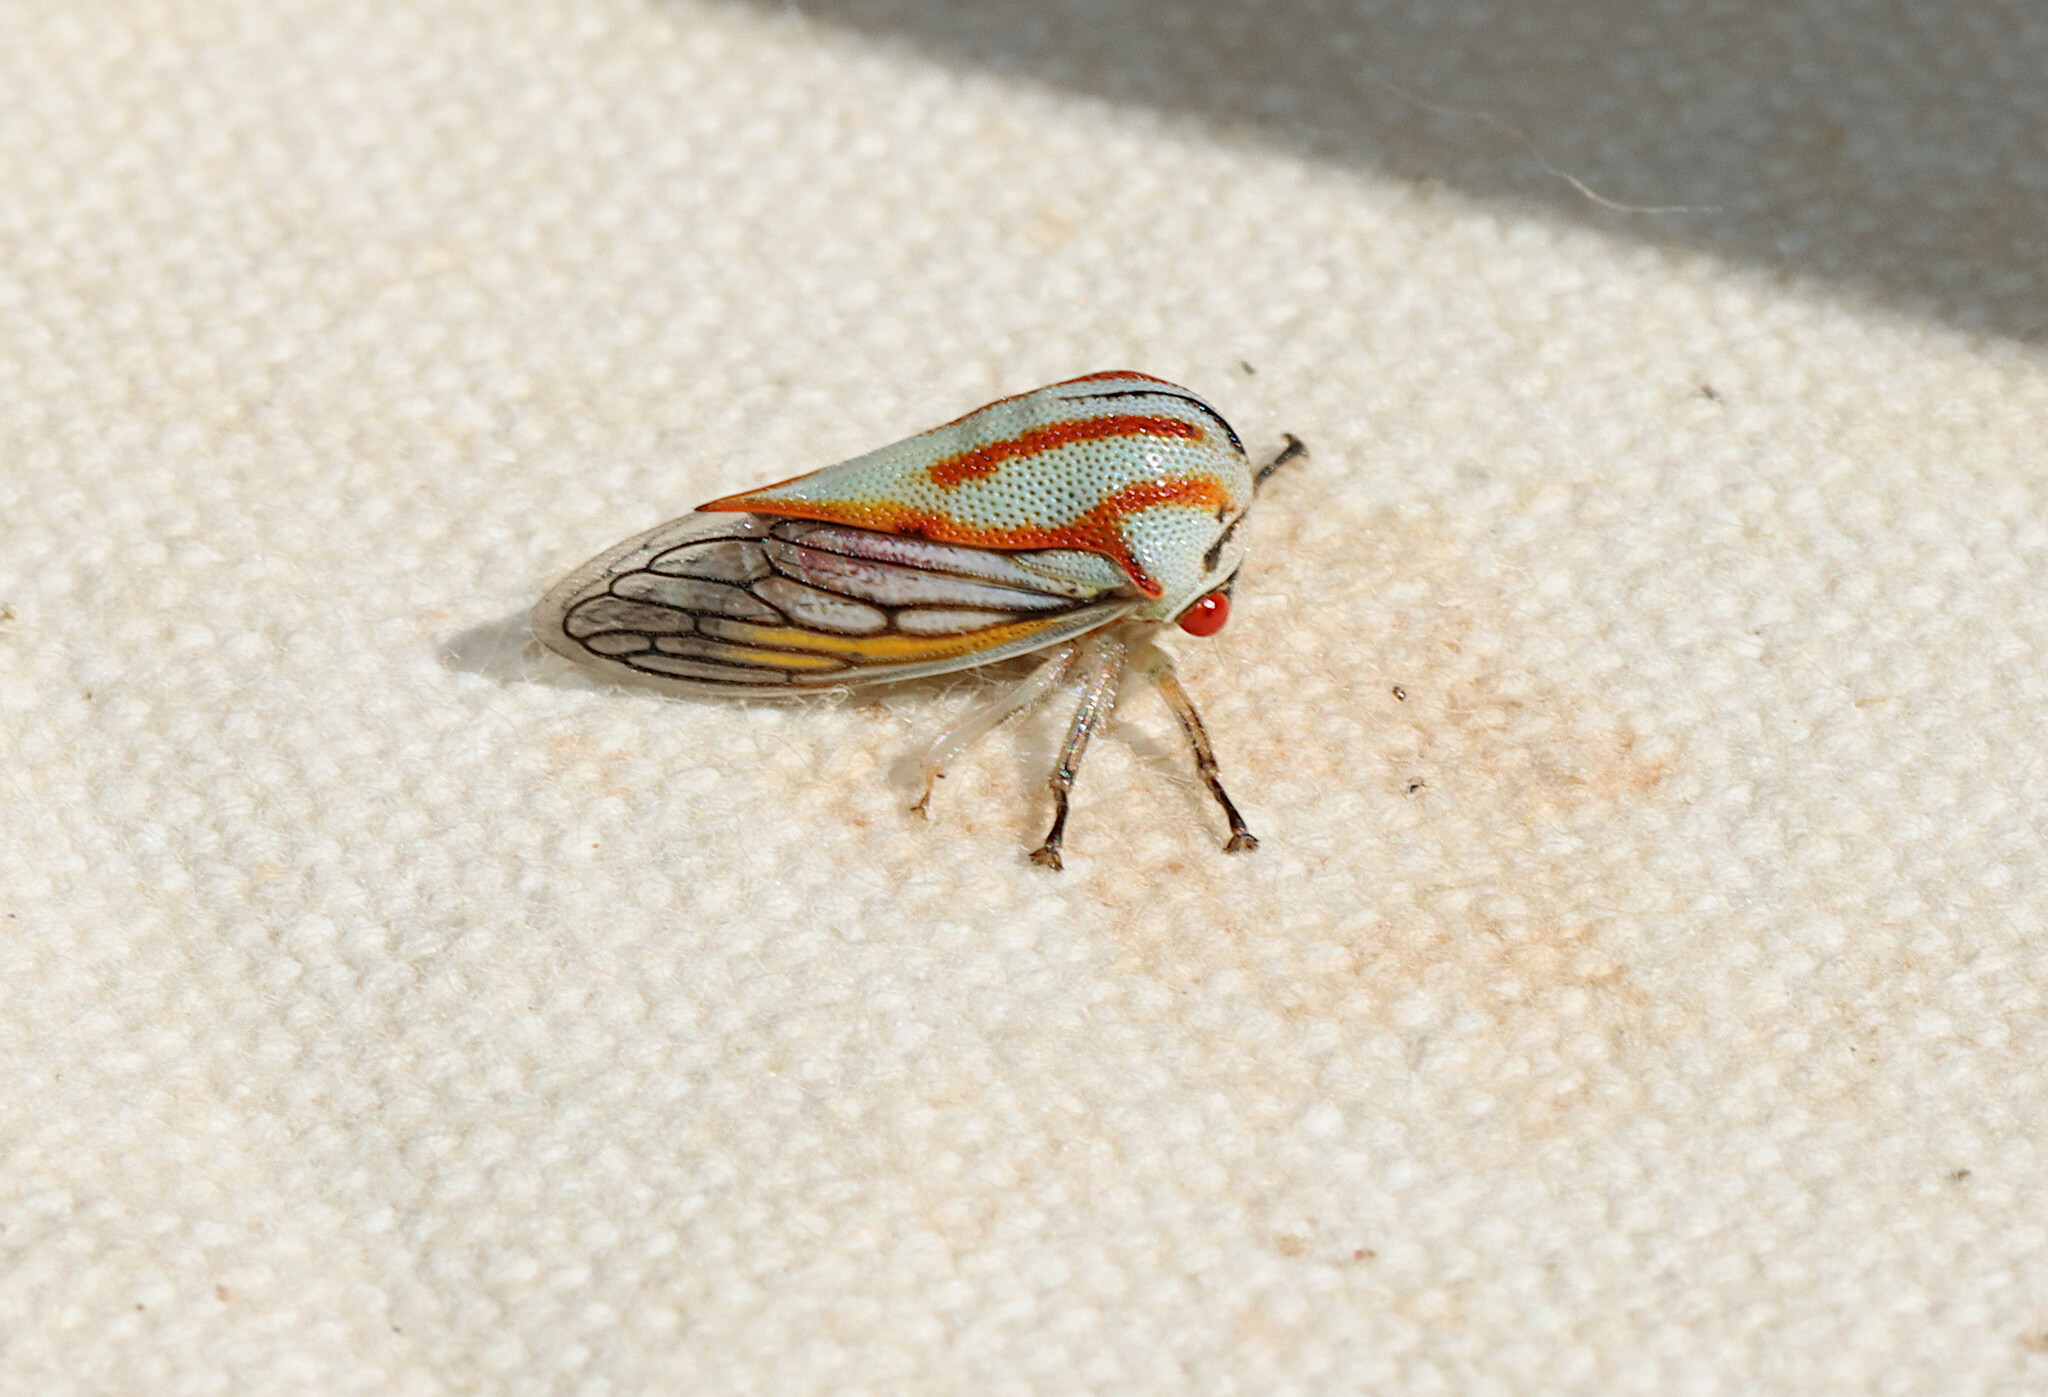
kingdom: Animalia
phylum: Arthropoda
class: Insecta
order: Hemiptera
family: Membracidae
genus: Platycotis
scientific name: Platycotis vittatus
